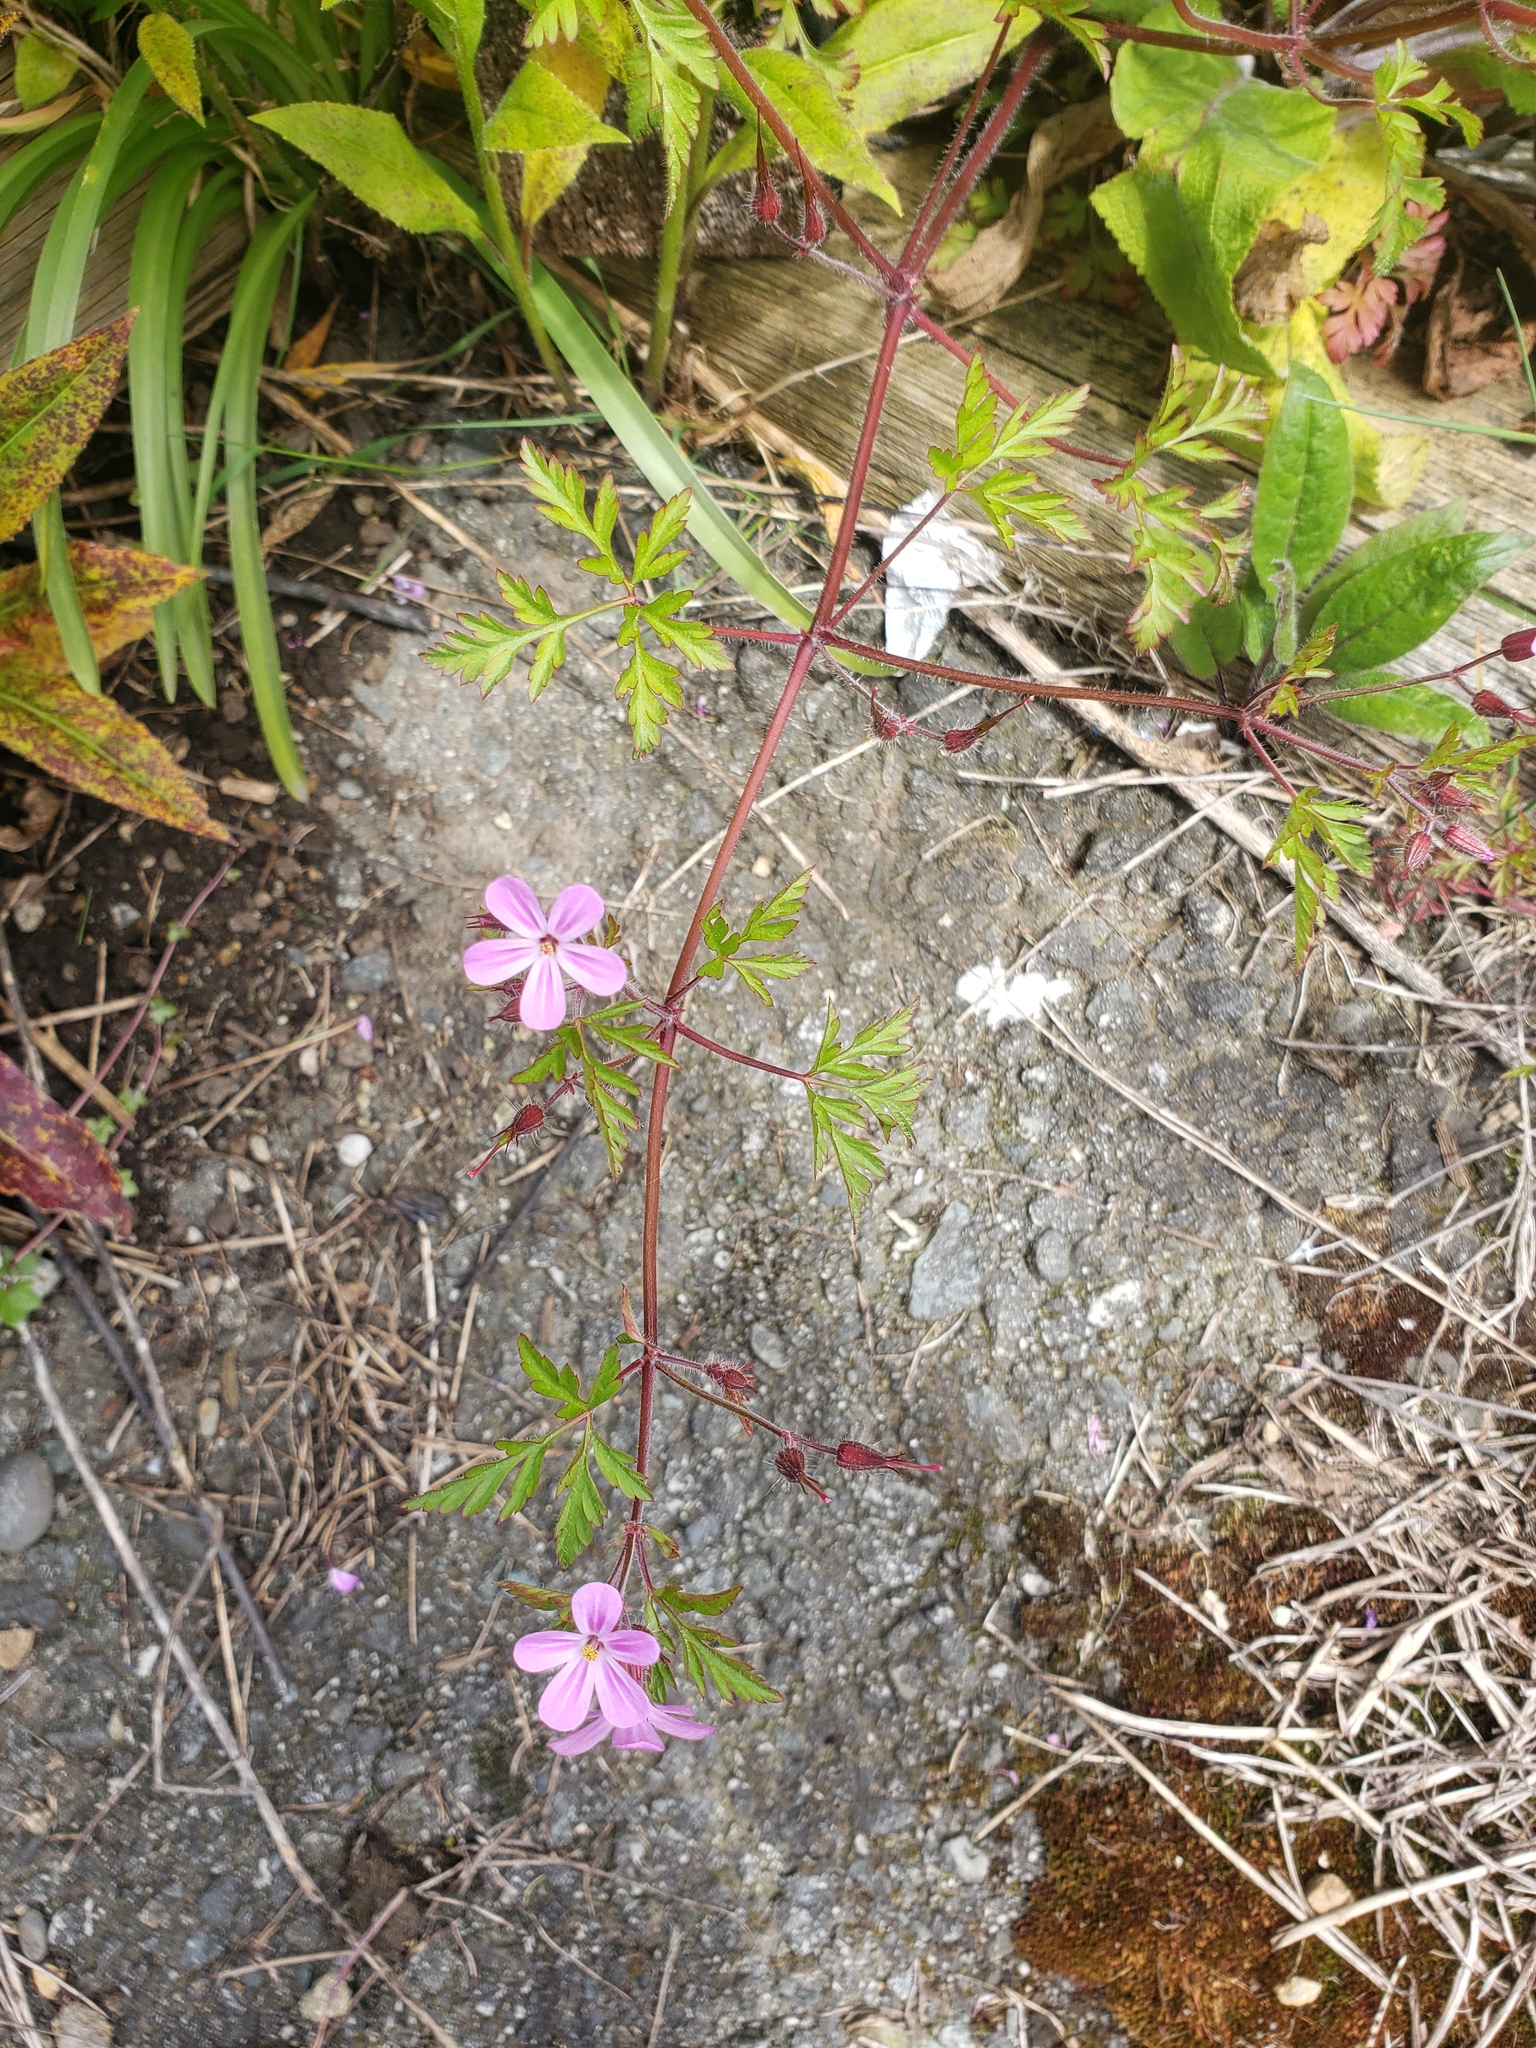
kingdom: Plantae
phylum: Tracheophyta
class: Magnoliopsida
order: Geraniales
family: Geraniaceae
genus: Geranium
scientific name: Geranium robertianum
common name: Herb-robert
